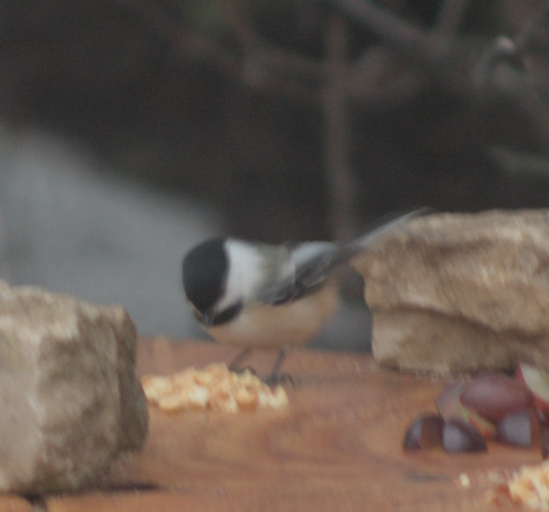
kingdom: Animalia
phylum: Chordata
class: Aves
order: Passeriformes
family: Paridae
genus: Poecile
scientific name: Poecile atricapillus
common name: Black-capped chickadee
